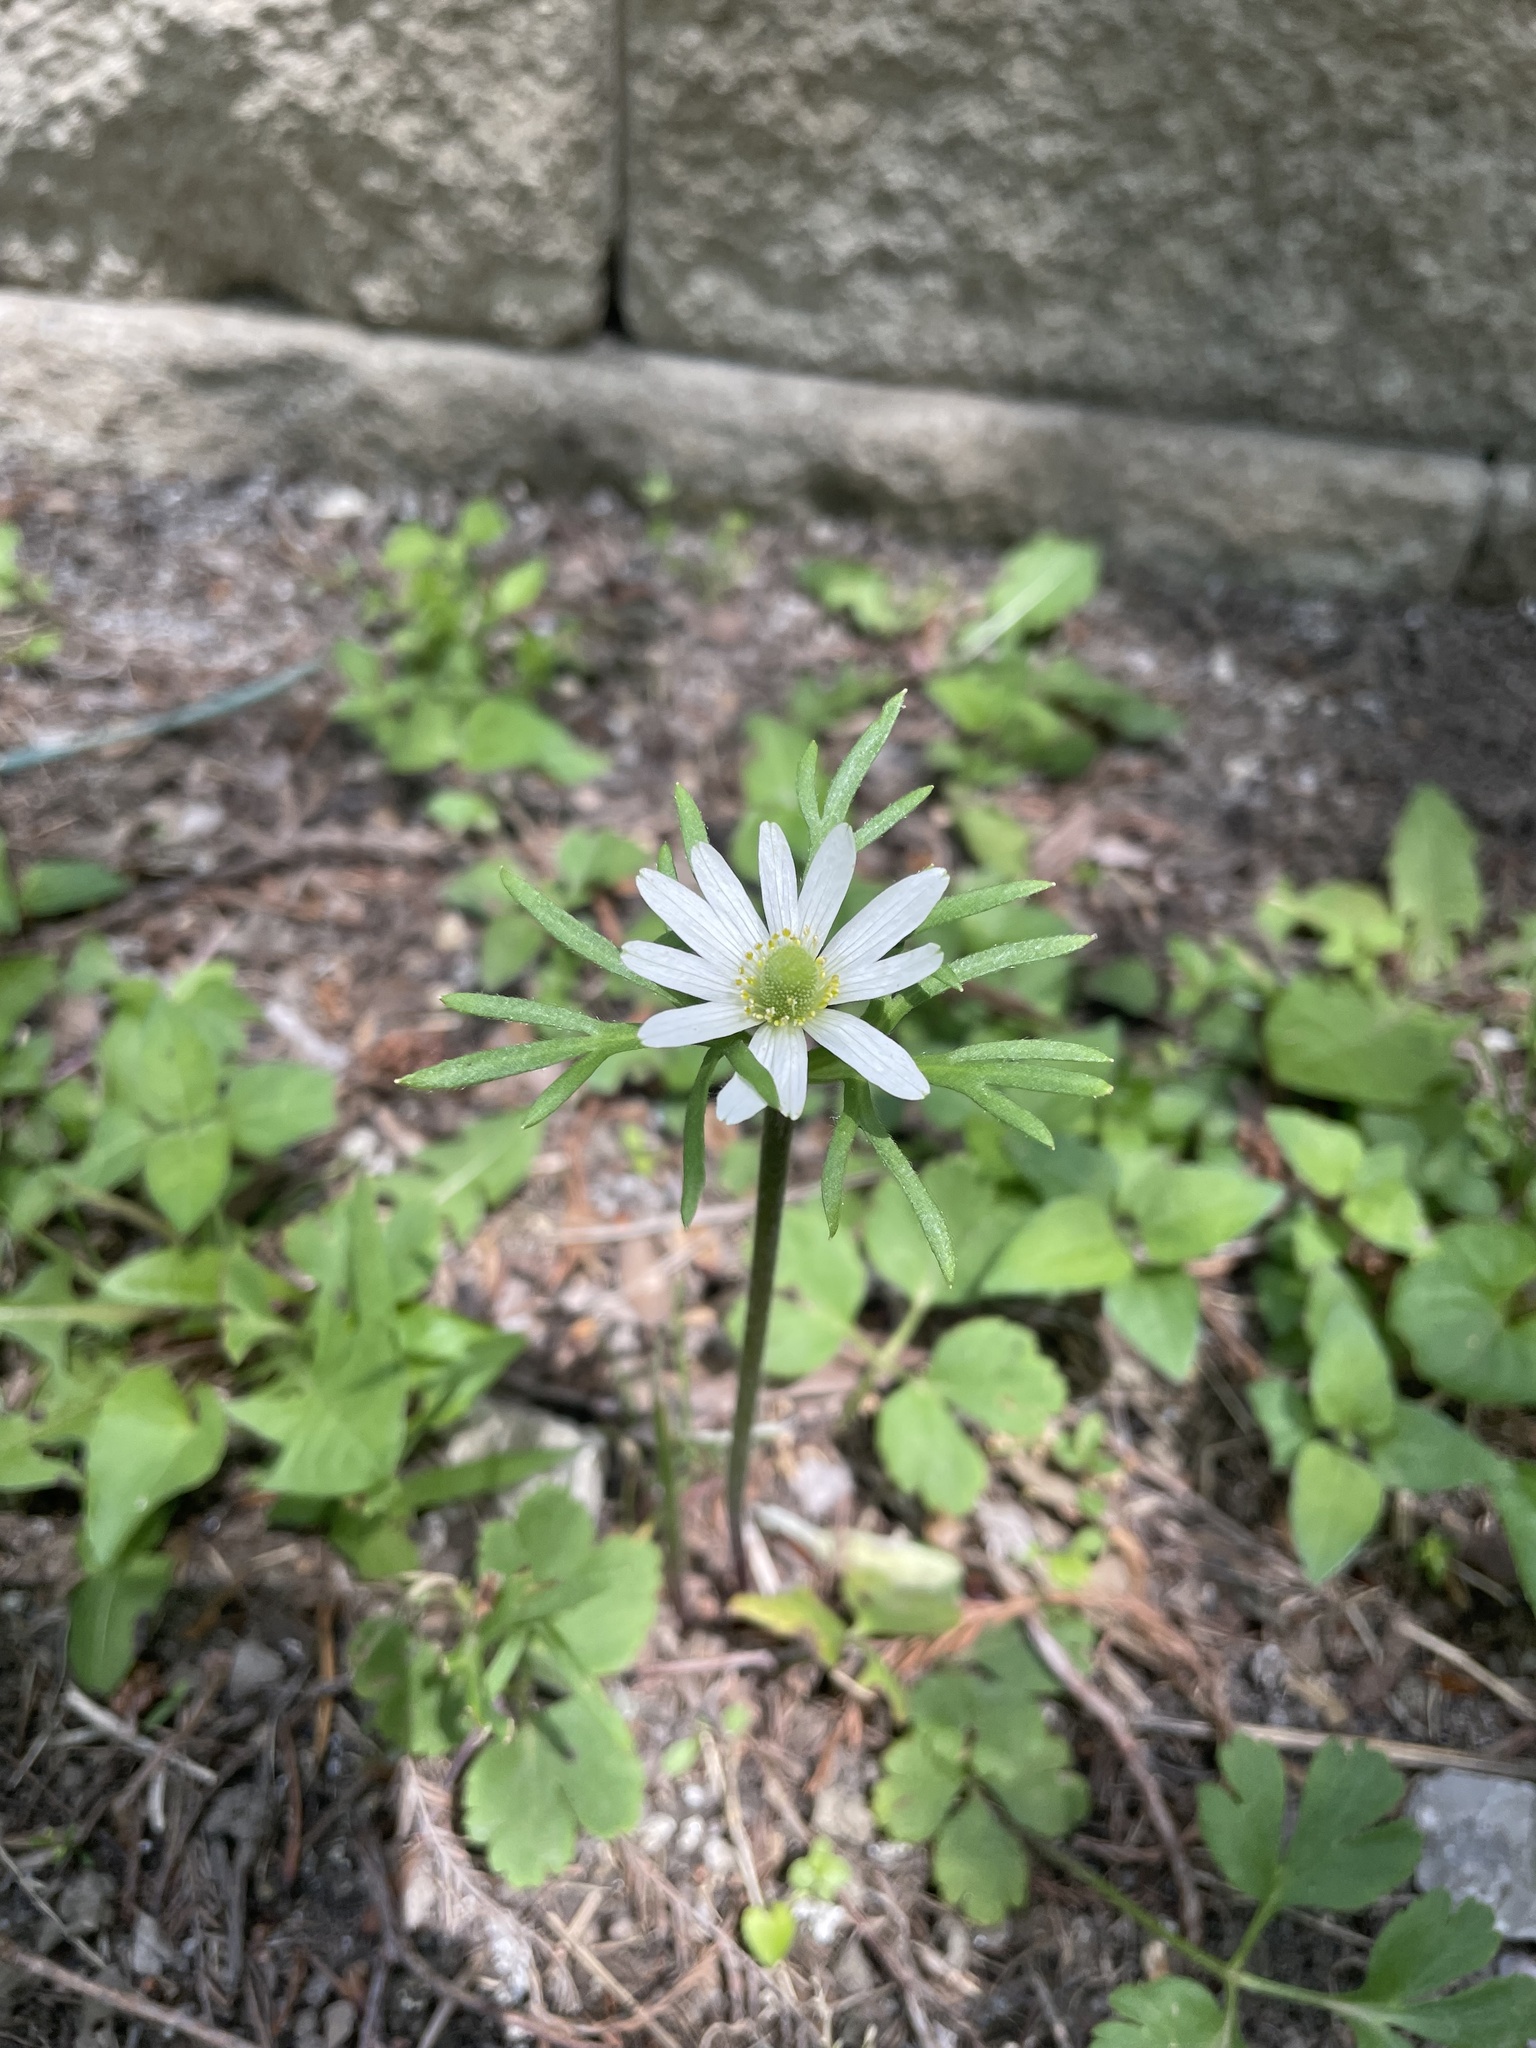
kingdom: Plantae
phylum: Tracheophyta
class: Magnoliopsida
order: Ranunculales
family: Ranunculaceae
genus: Anemone
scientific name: Anemone berlandieri
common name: Ten-petal anemone
